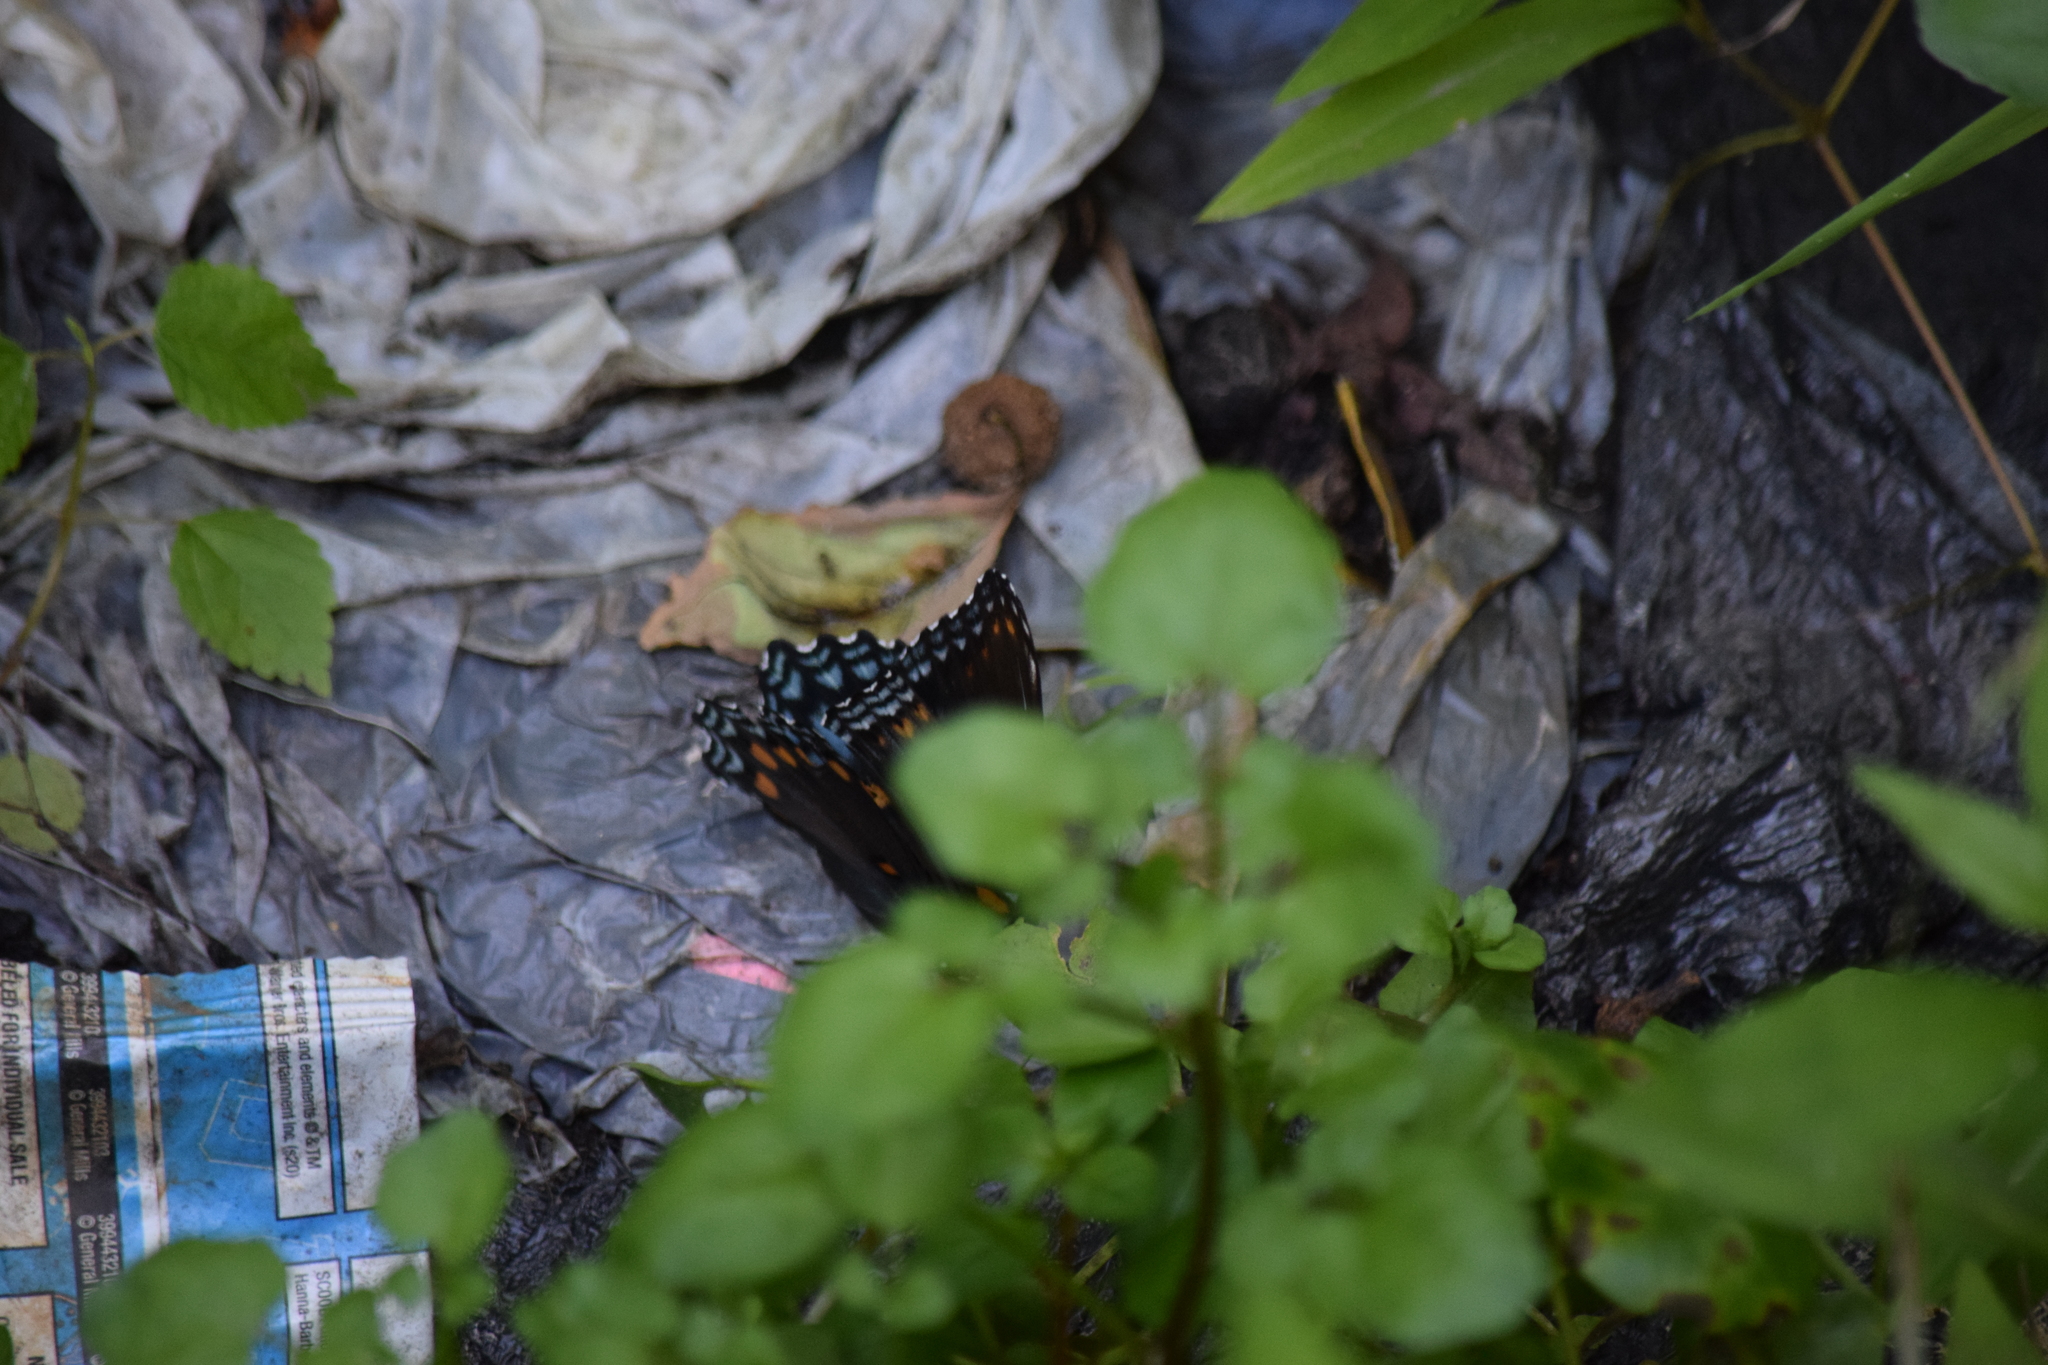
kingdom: Animalia
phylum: Arthropoda
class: Insecta
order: Lepidoptera
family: Nymphalidae
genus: Limenitis
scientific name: Limenitis astyanax
